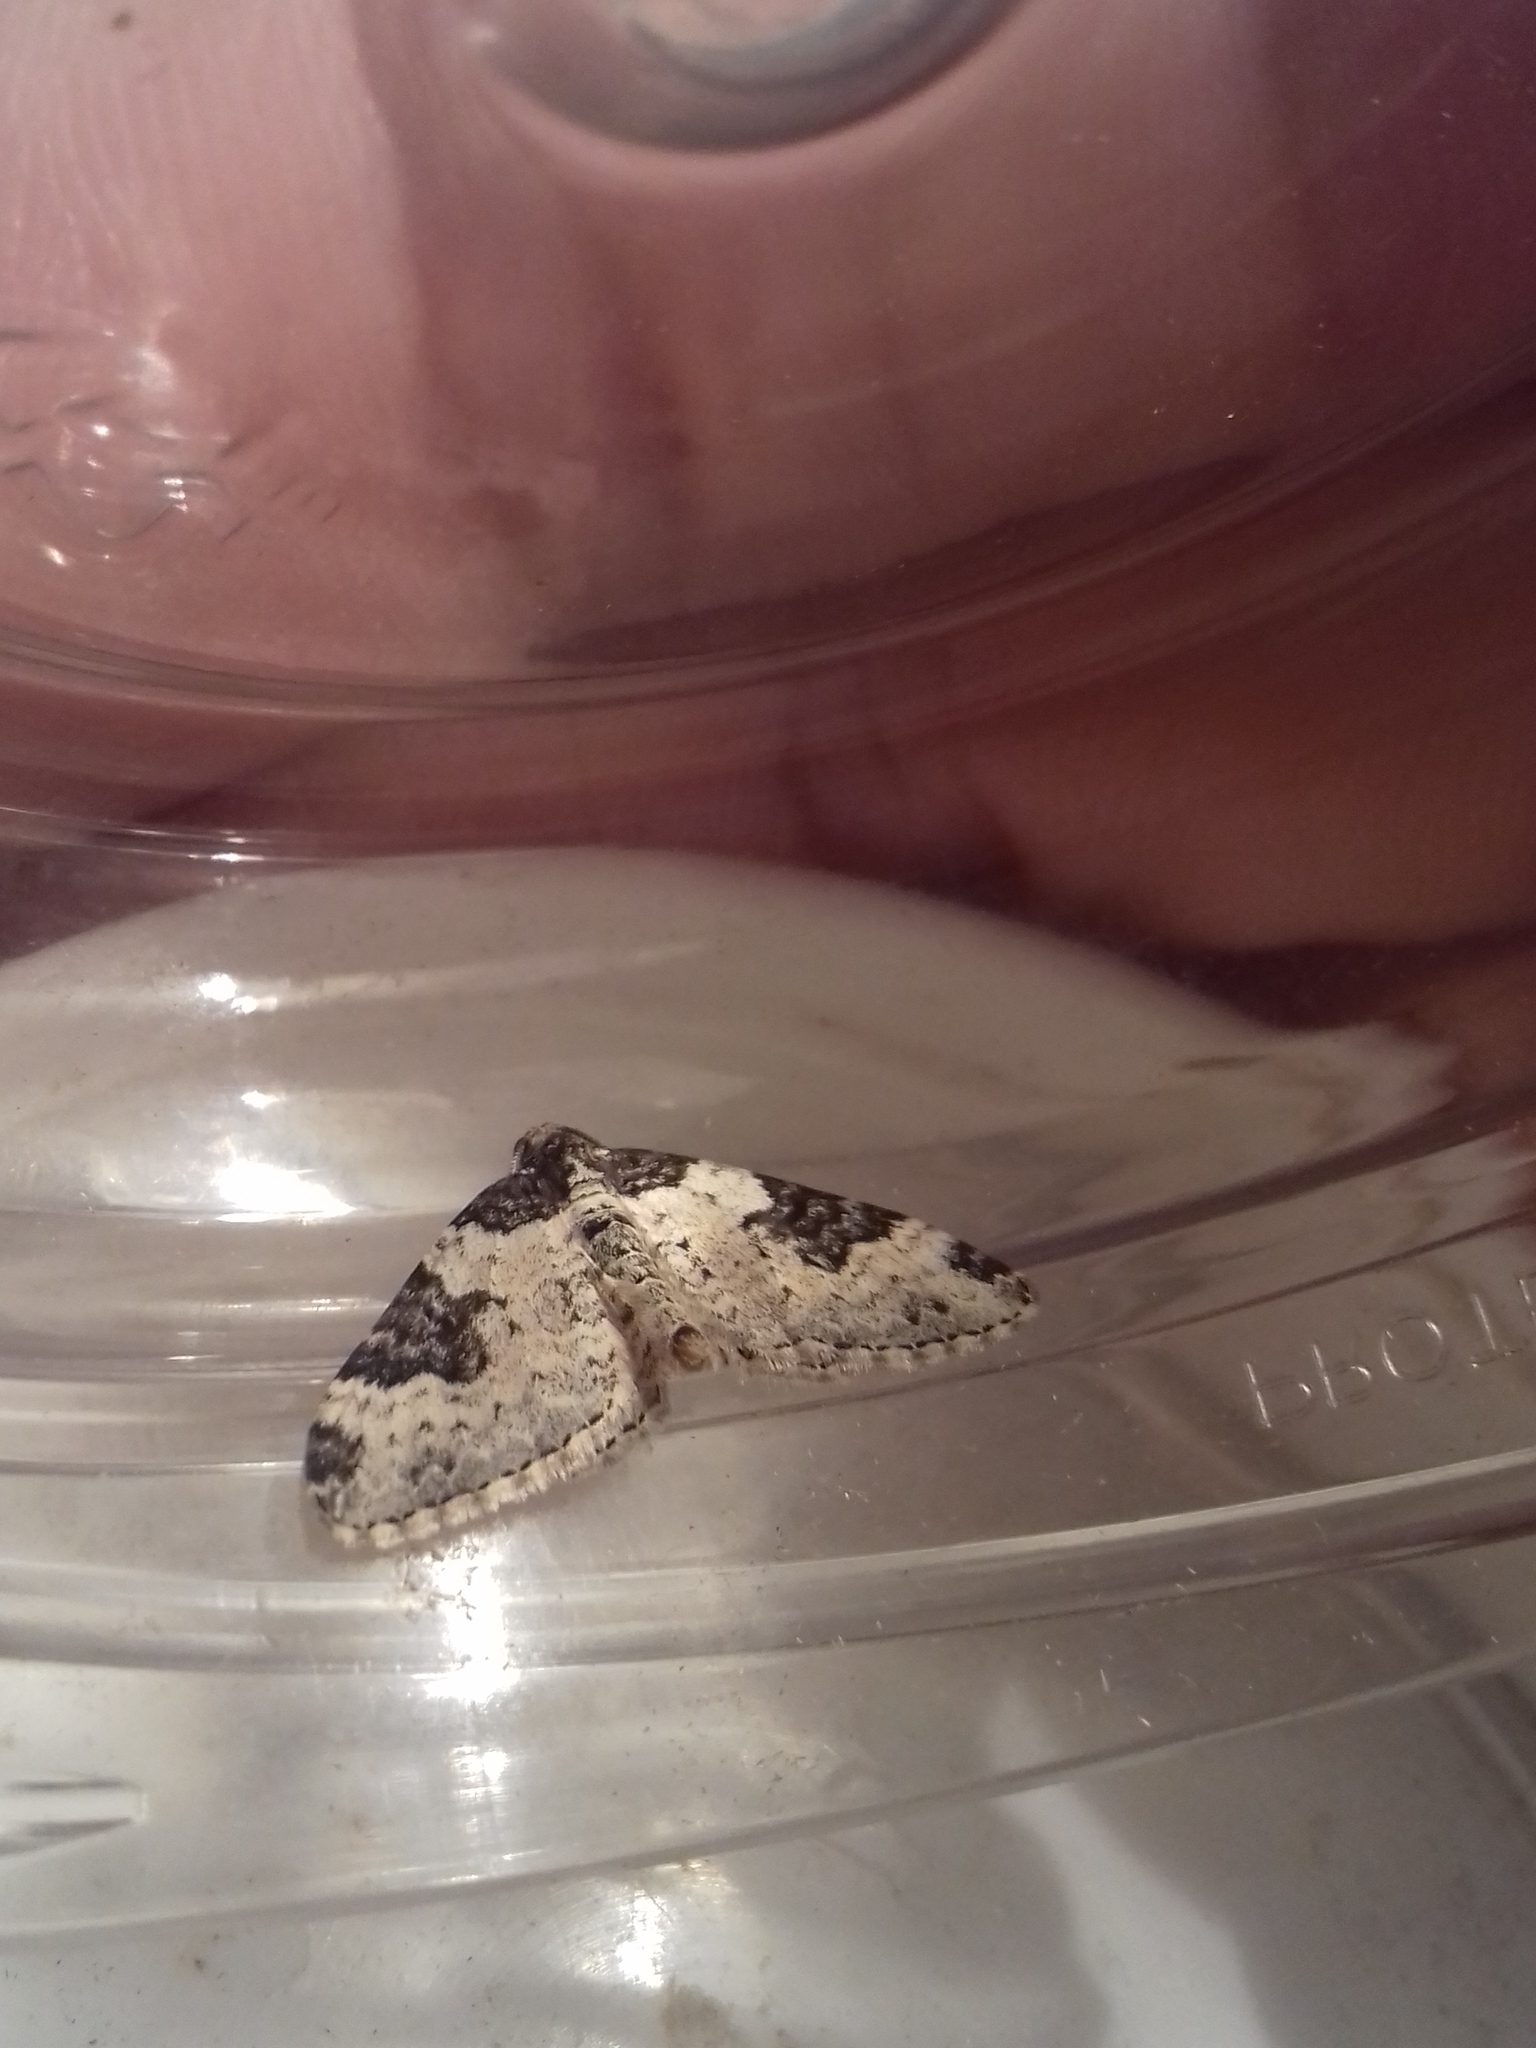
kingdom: Animalia
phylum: Arthropoda
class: Insecta
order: Lepidoptera
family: Geometridae
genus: Xanthorhoe
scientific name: Xanthorhoe fluctuata
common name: Garden carpet
